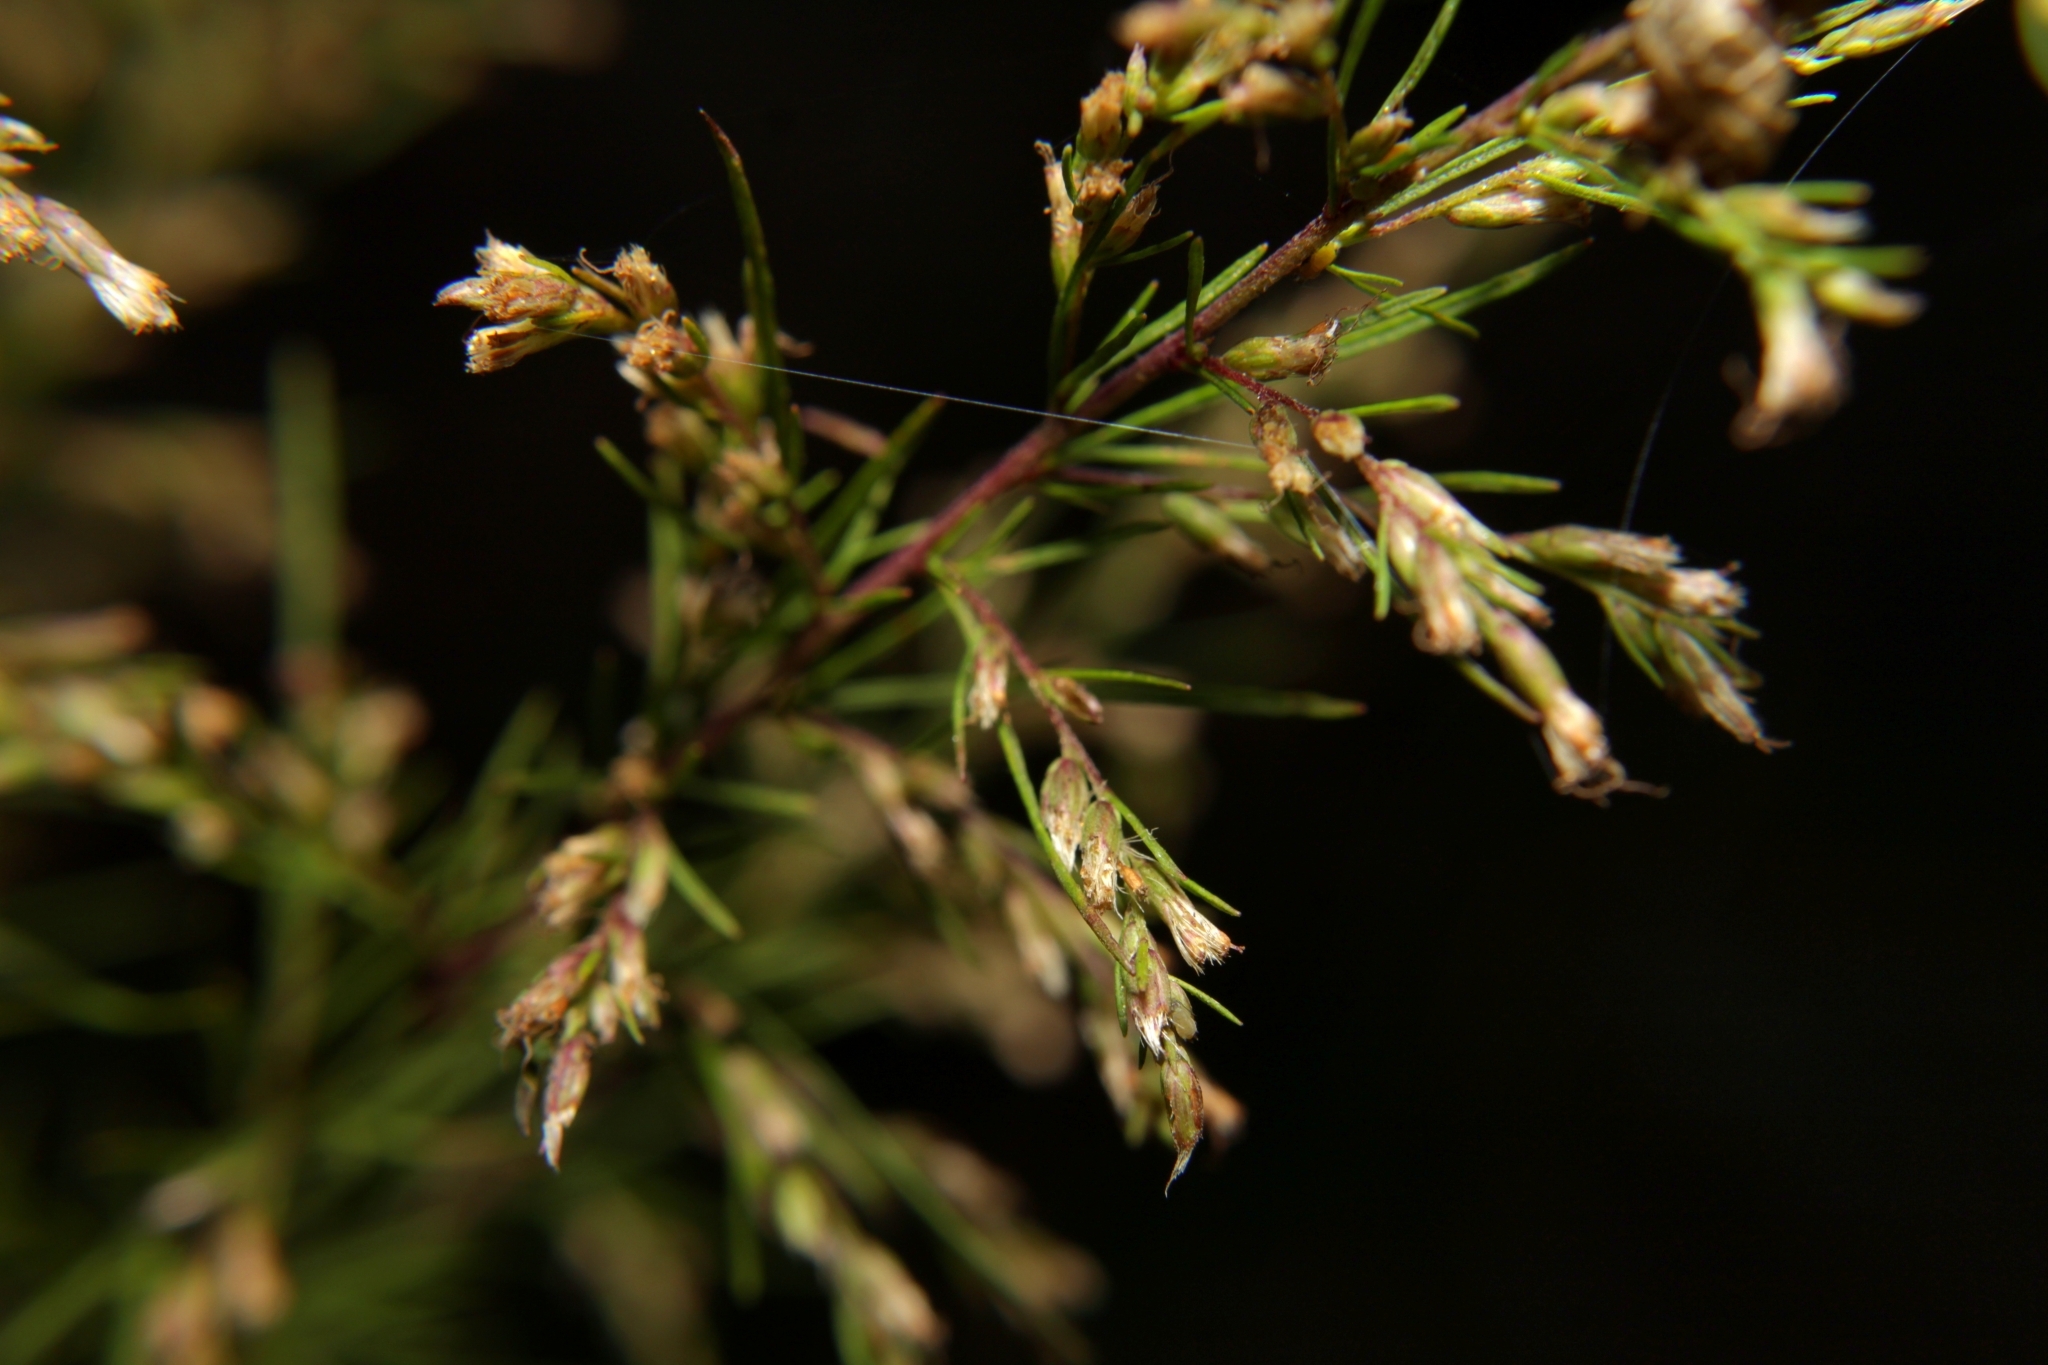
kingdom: Plantae
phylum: Tracheophyta
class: Magnoliopsida
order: Asterales
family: Asteraceae
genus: Eupatorium
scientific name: Eupatorium capillifolium
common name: Dog-fennel
